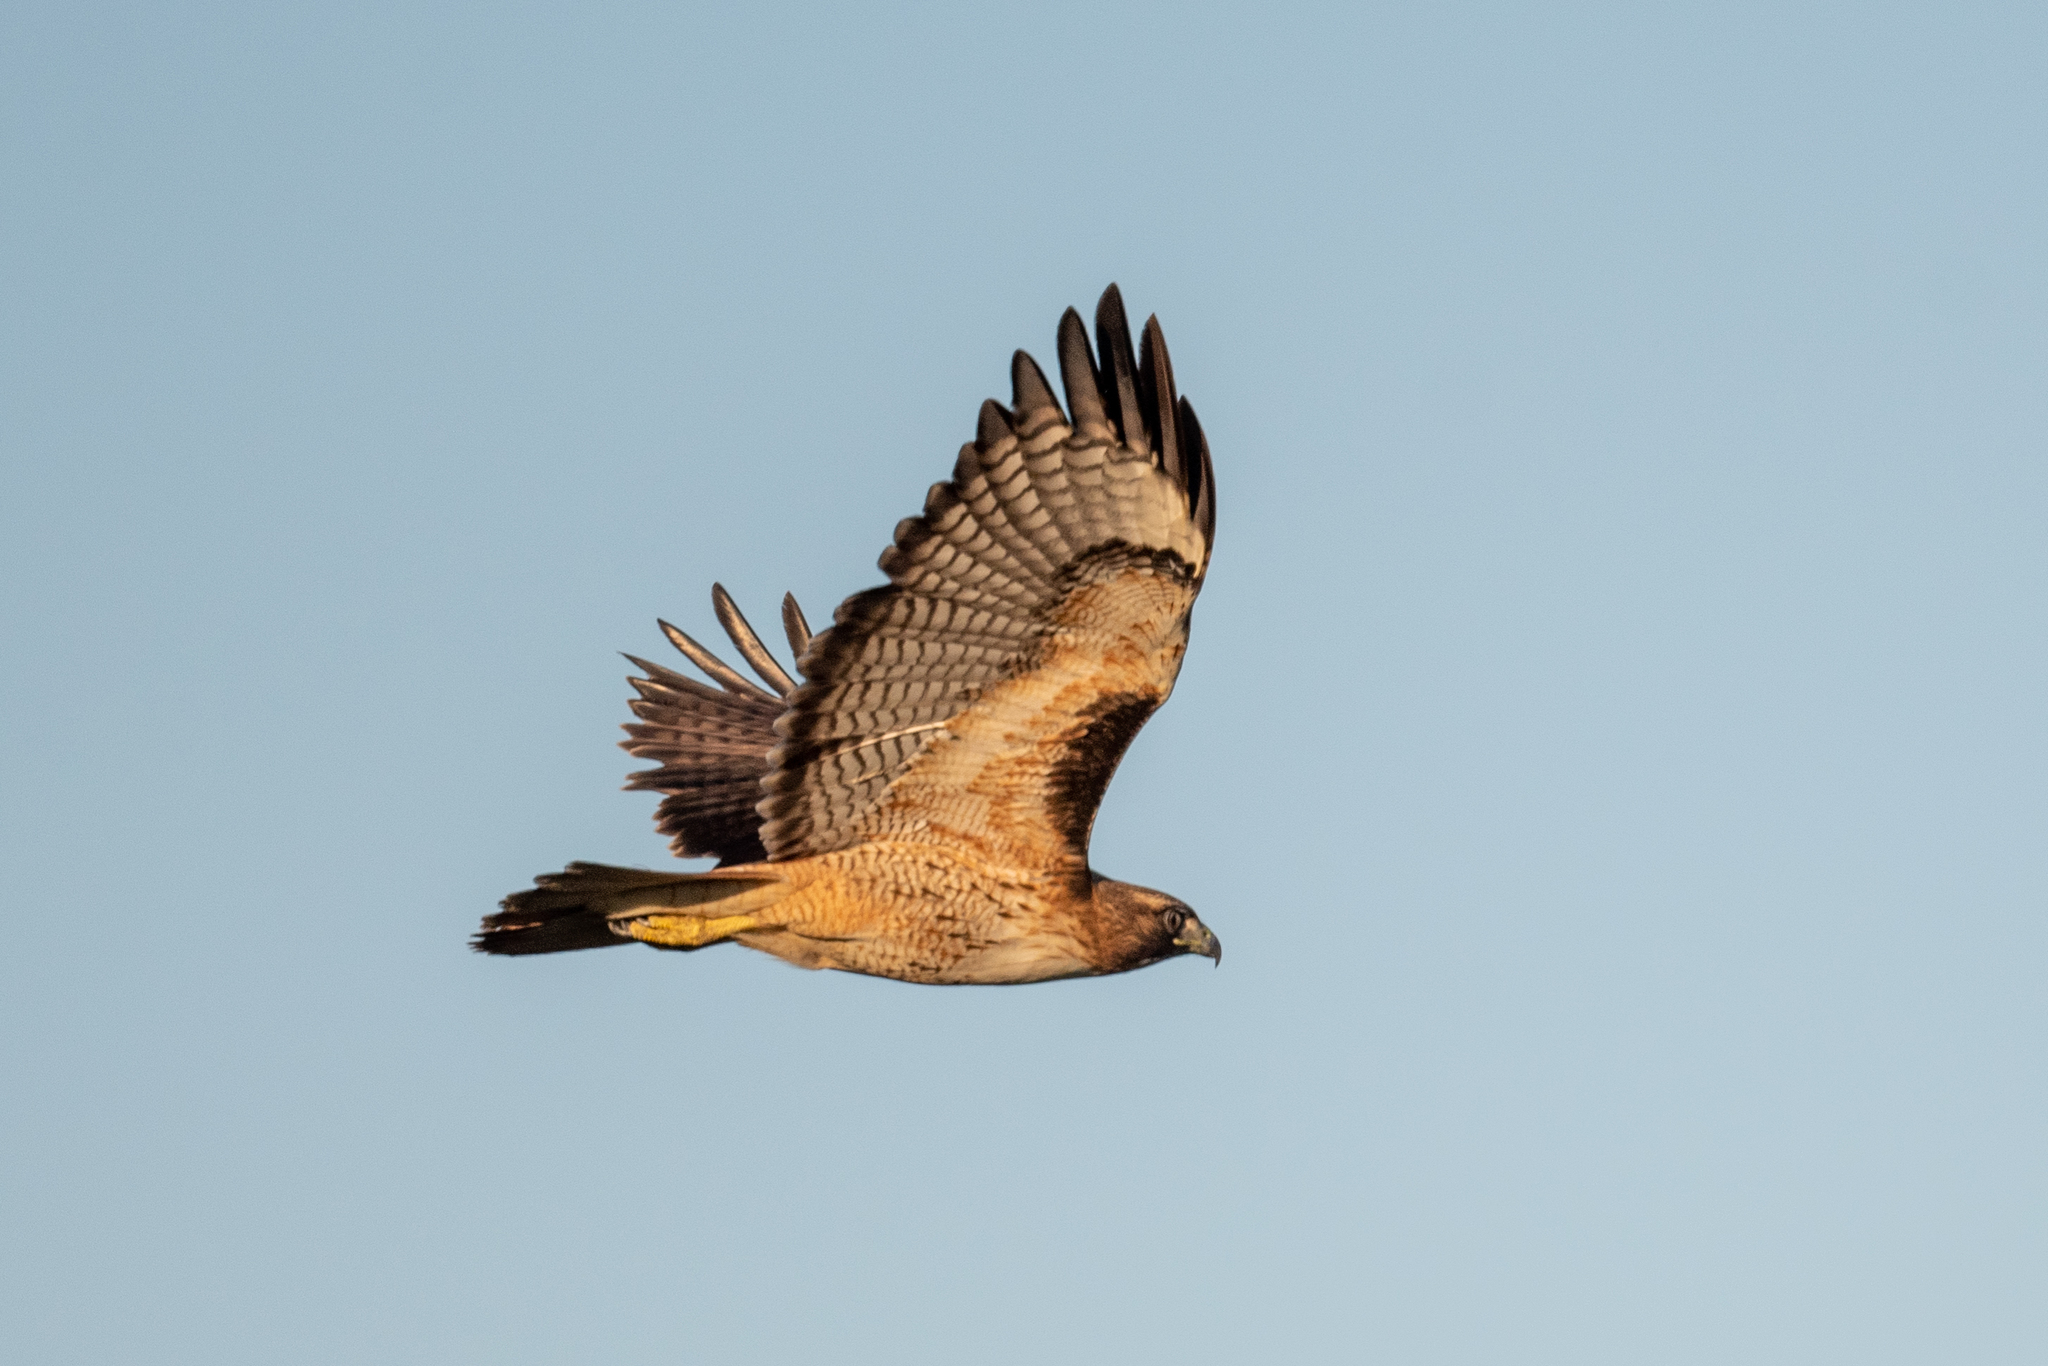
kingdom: Animalia
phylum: Chordata
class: Aves
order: Accipitriformes
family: Accipitridae
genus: Buteo
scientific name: Buteo jamaicensis
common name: Red-tailed hawk
